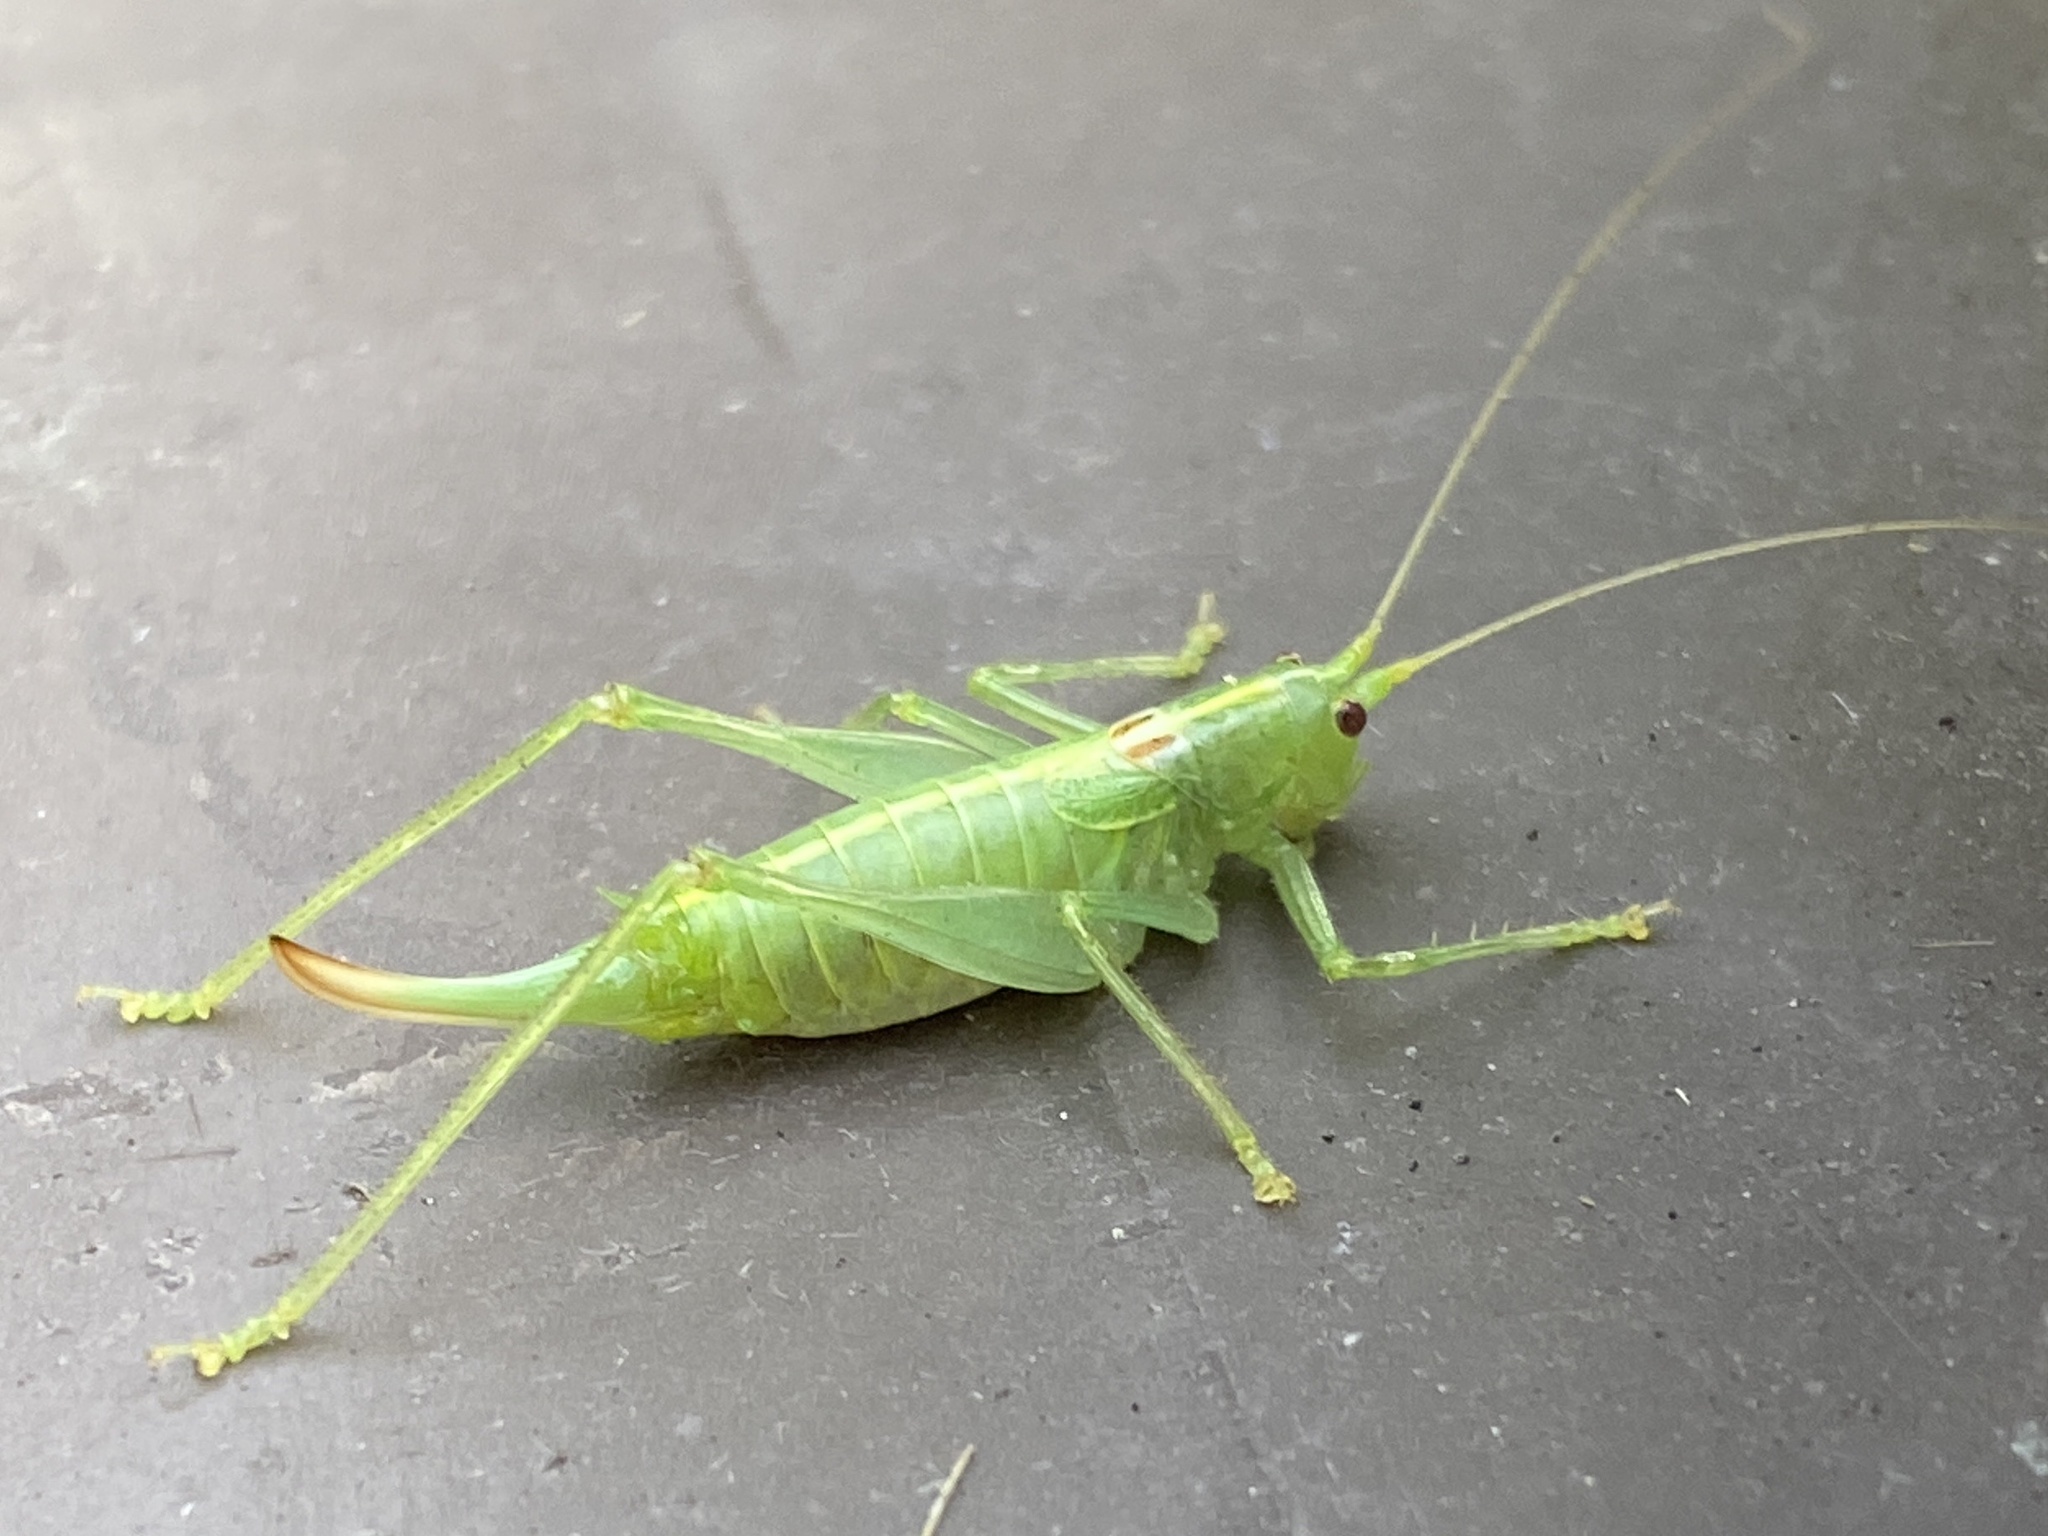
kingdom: Animalia
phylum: Arthropoda
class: Insecta
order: Orthoptera
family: Tettigoniidae
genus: Meconema
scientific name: Meconema meridionale
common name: Southern oak bush-cricket
